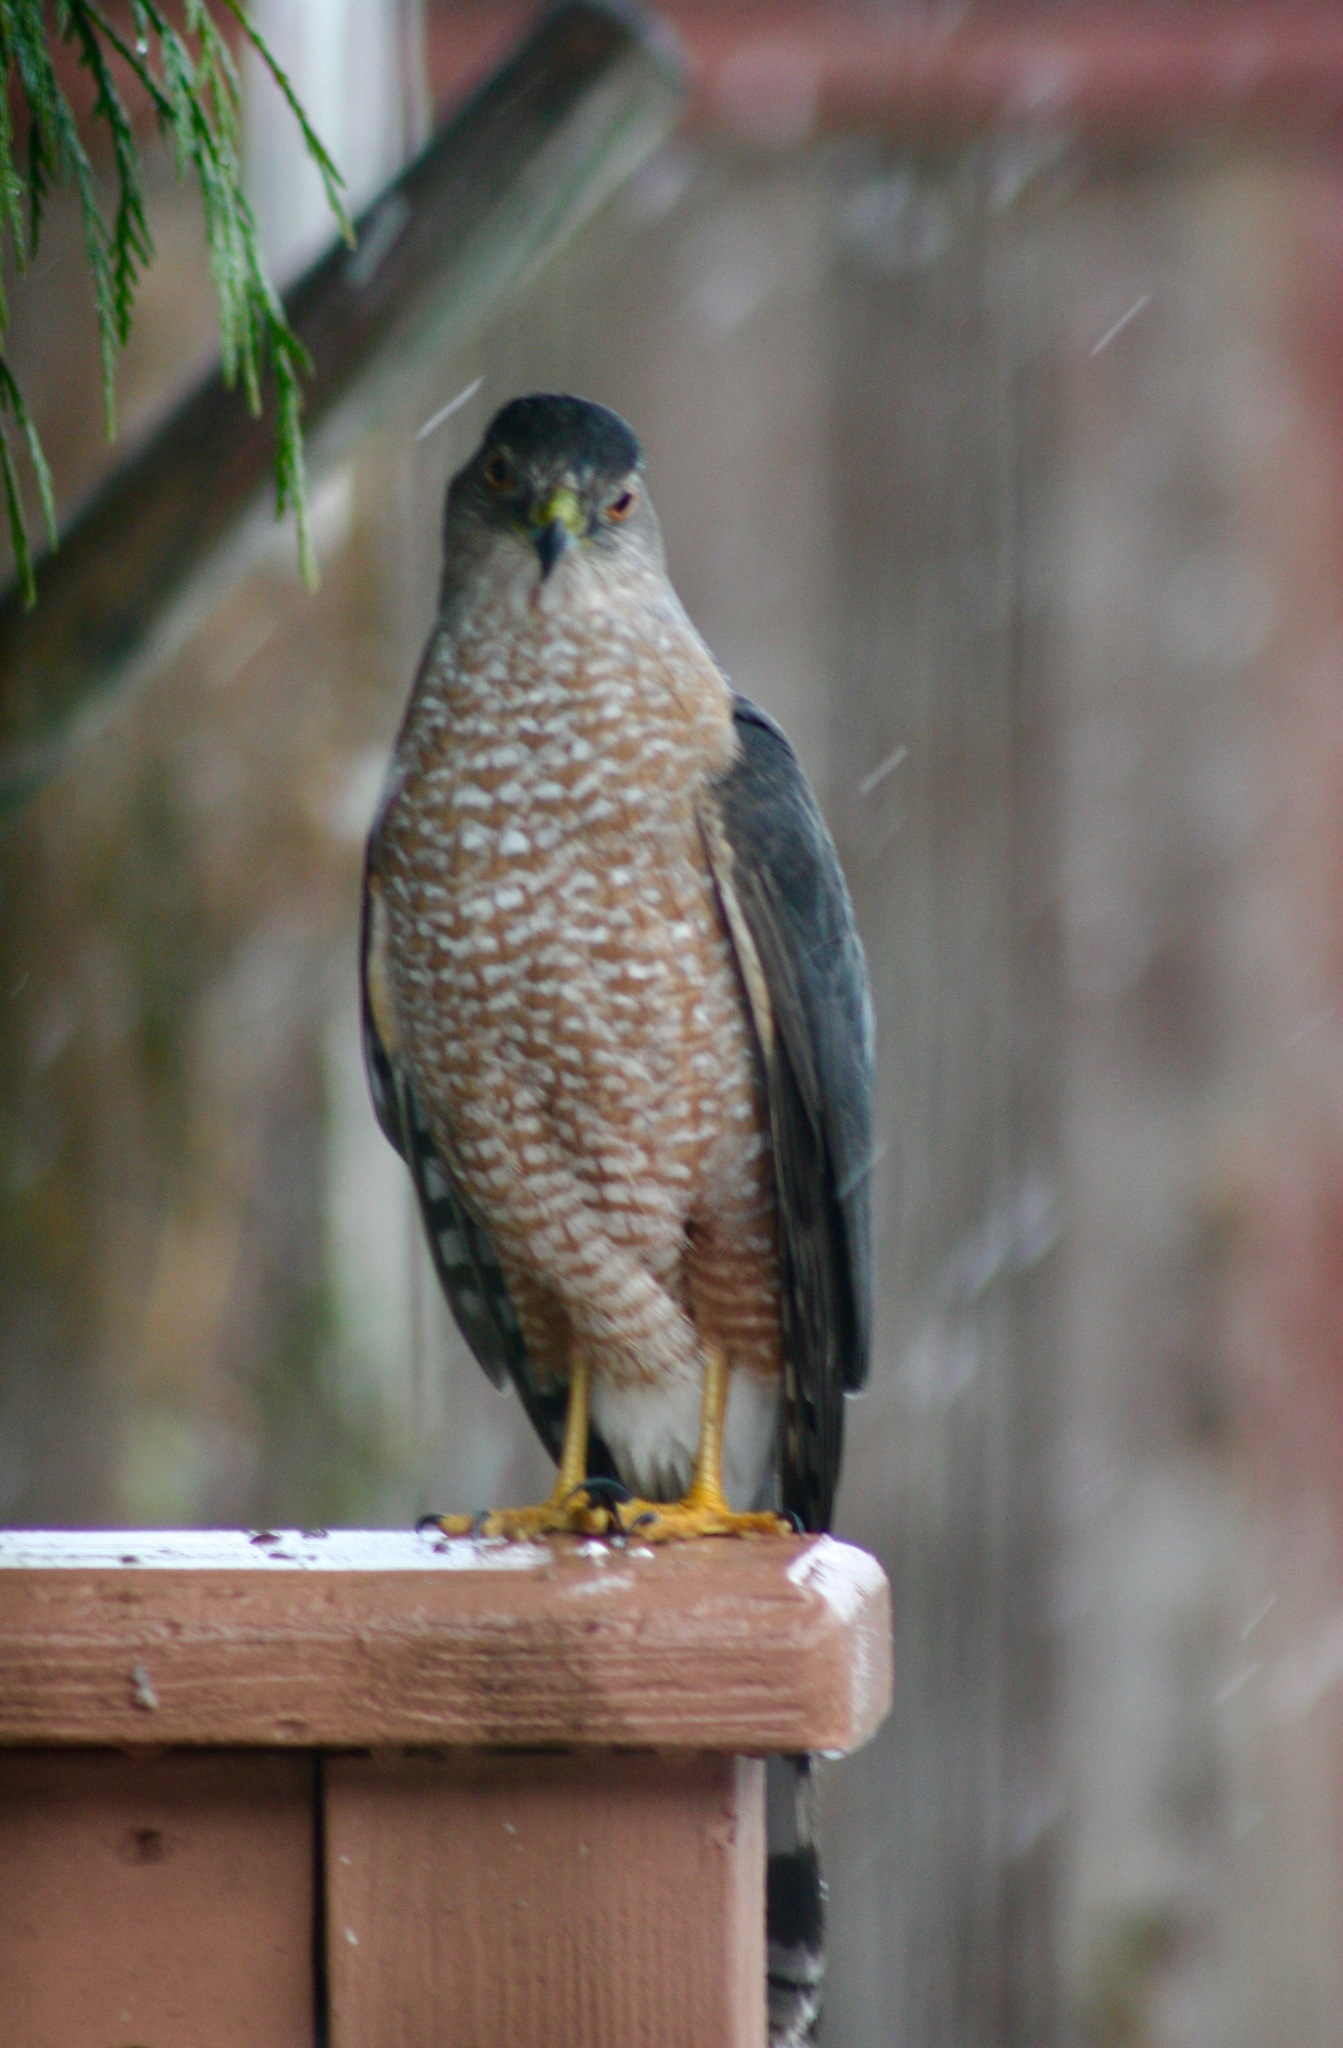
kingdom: Animalia
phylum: Chordata
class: Aves
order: Accipitriformes
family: Accipitridae
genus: Accipiter
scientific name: Accipiter cooperii
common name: Cooper's hawk
